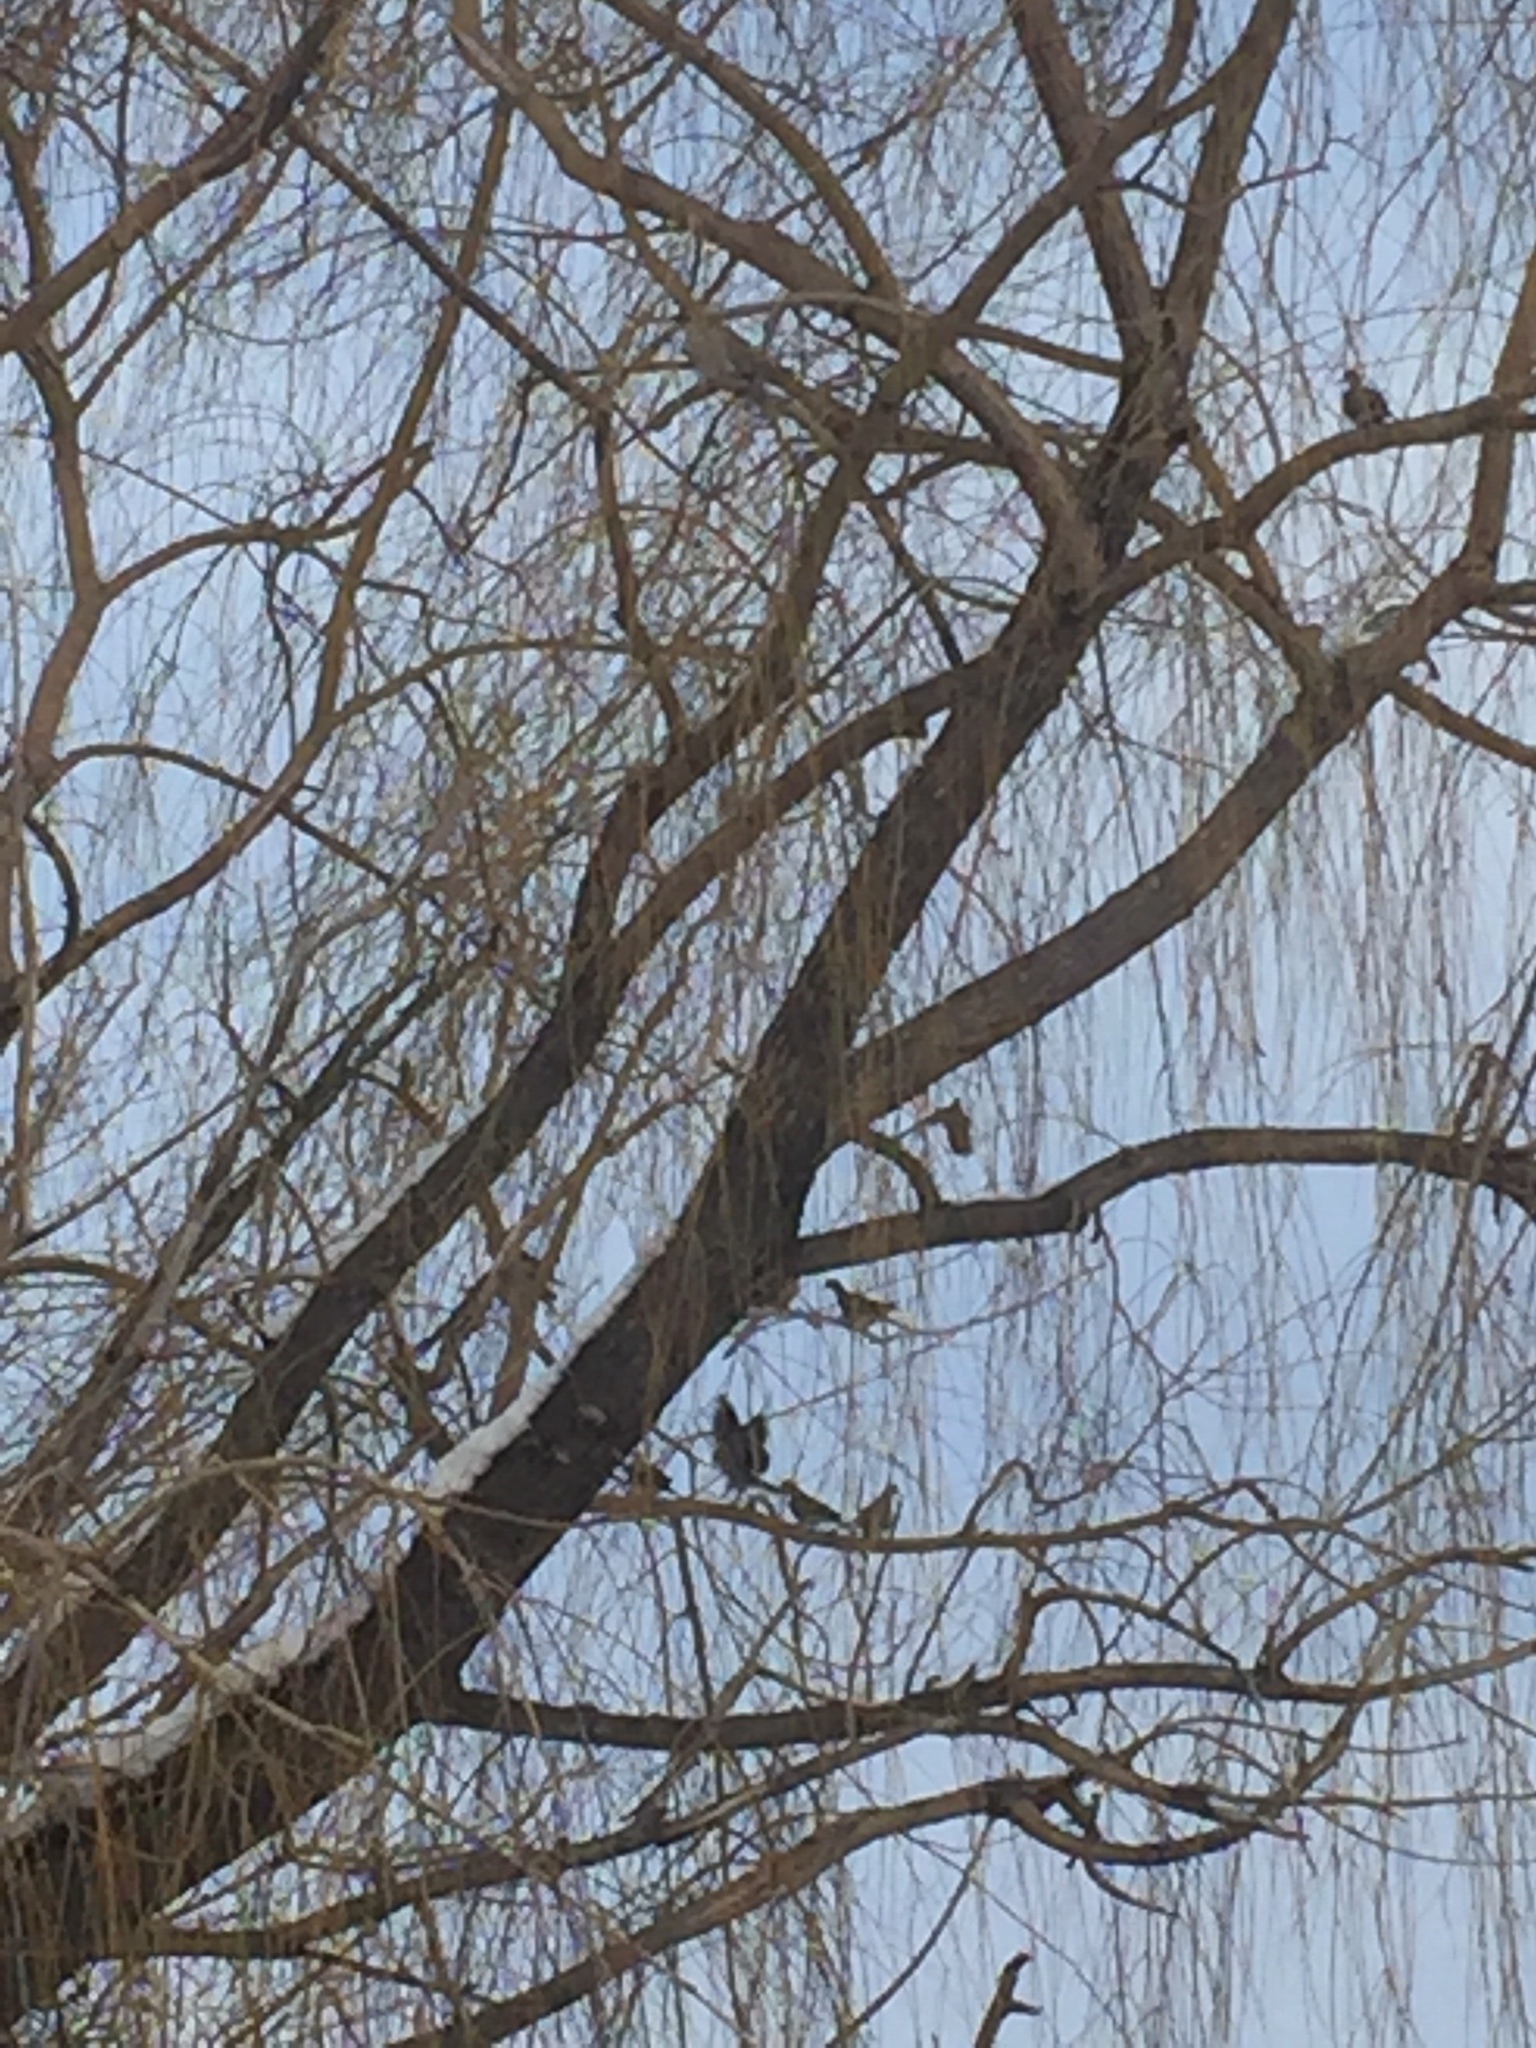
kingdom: Animalia
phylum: Chordata
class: Aves
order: Columbiformes
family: Columbidae
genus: Zenaida
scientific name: Zenaida macroura
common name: Mourning dove
